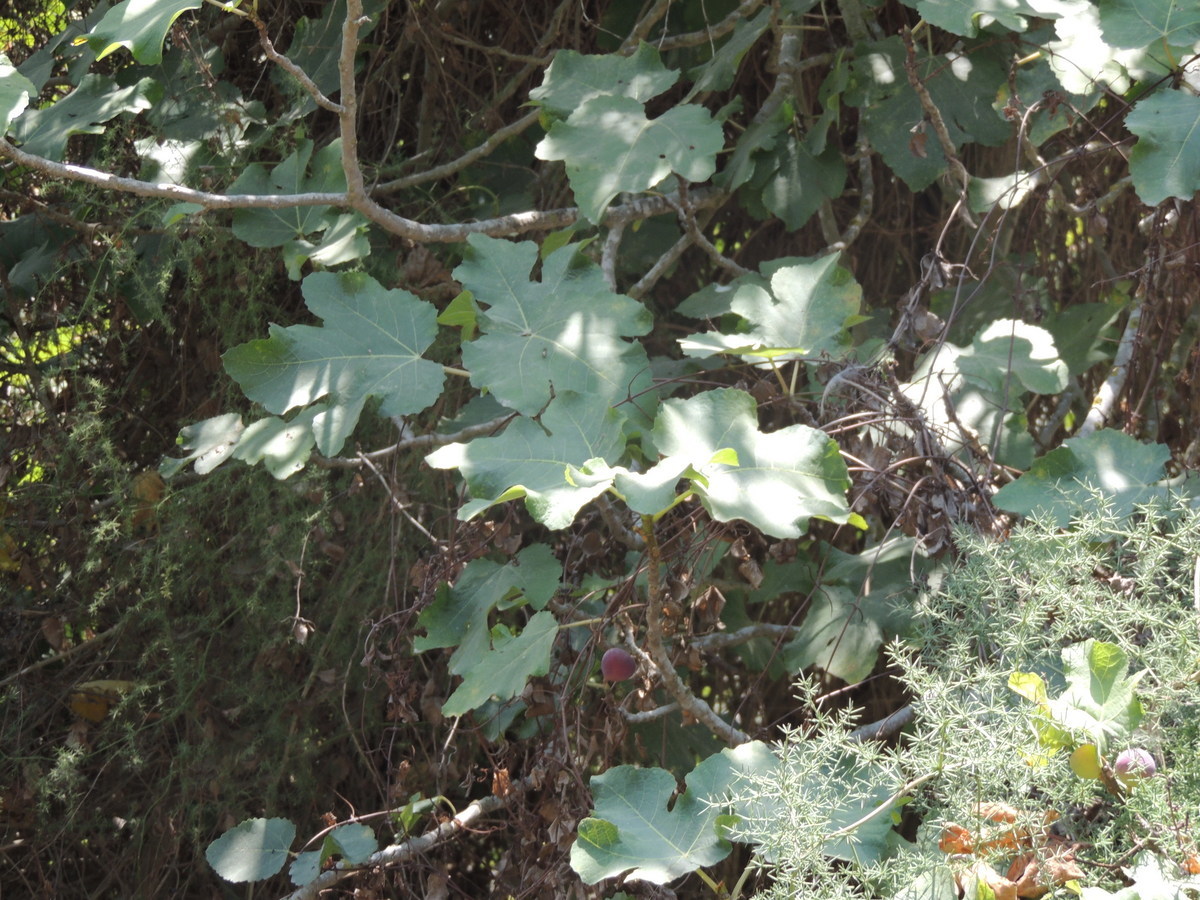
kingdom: Plantae
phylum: Tracheophyta
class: Magnoliopsida
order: Rosales
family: Moraceae
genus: Ficus
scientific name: Ficus carica
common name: Fig
